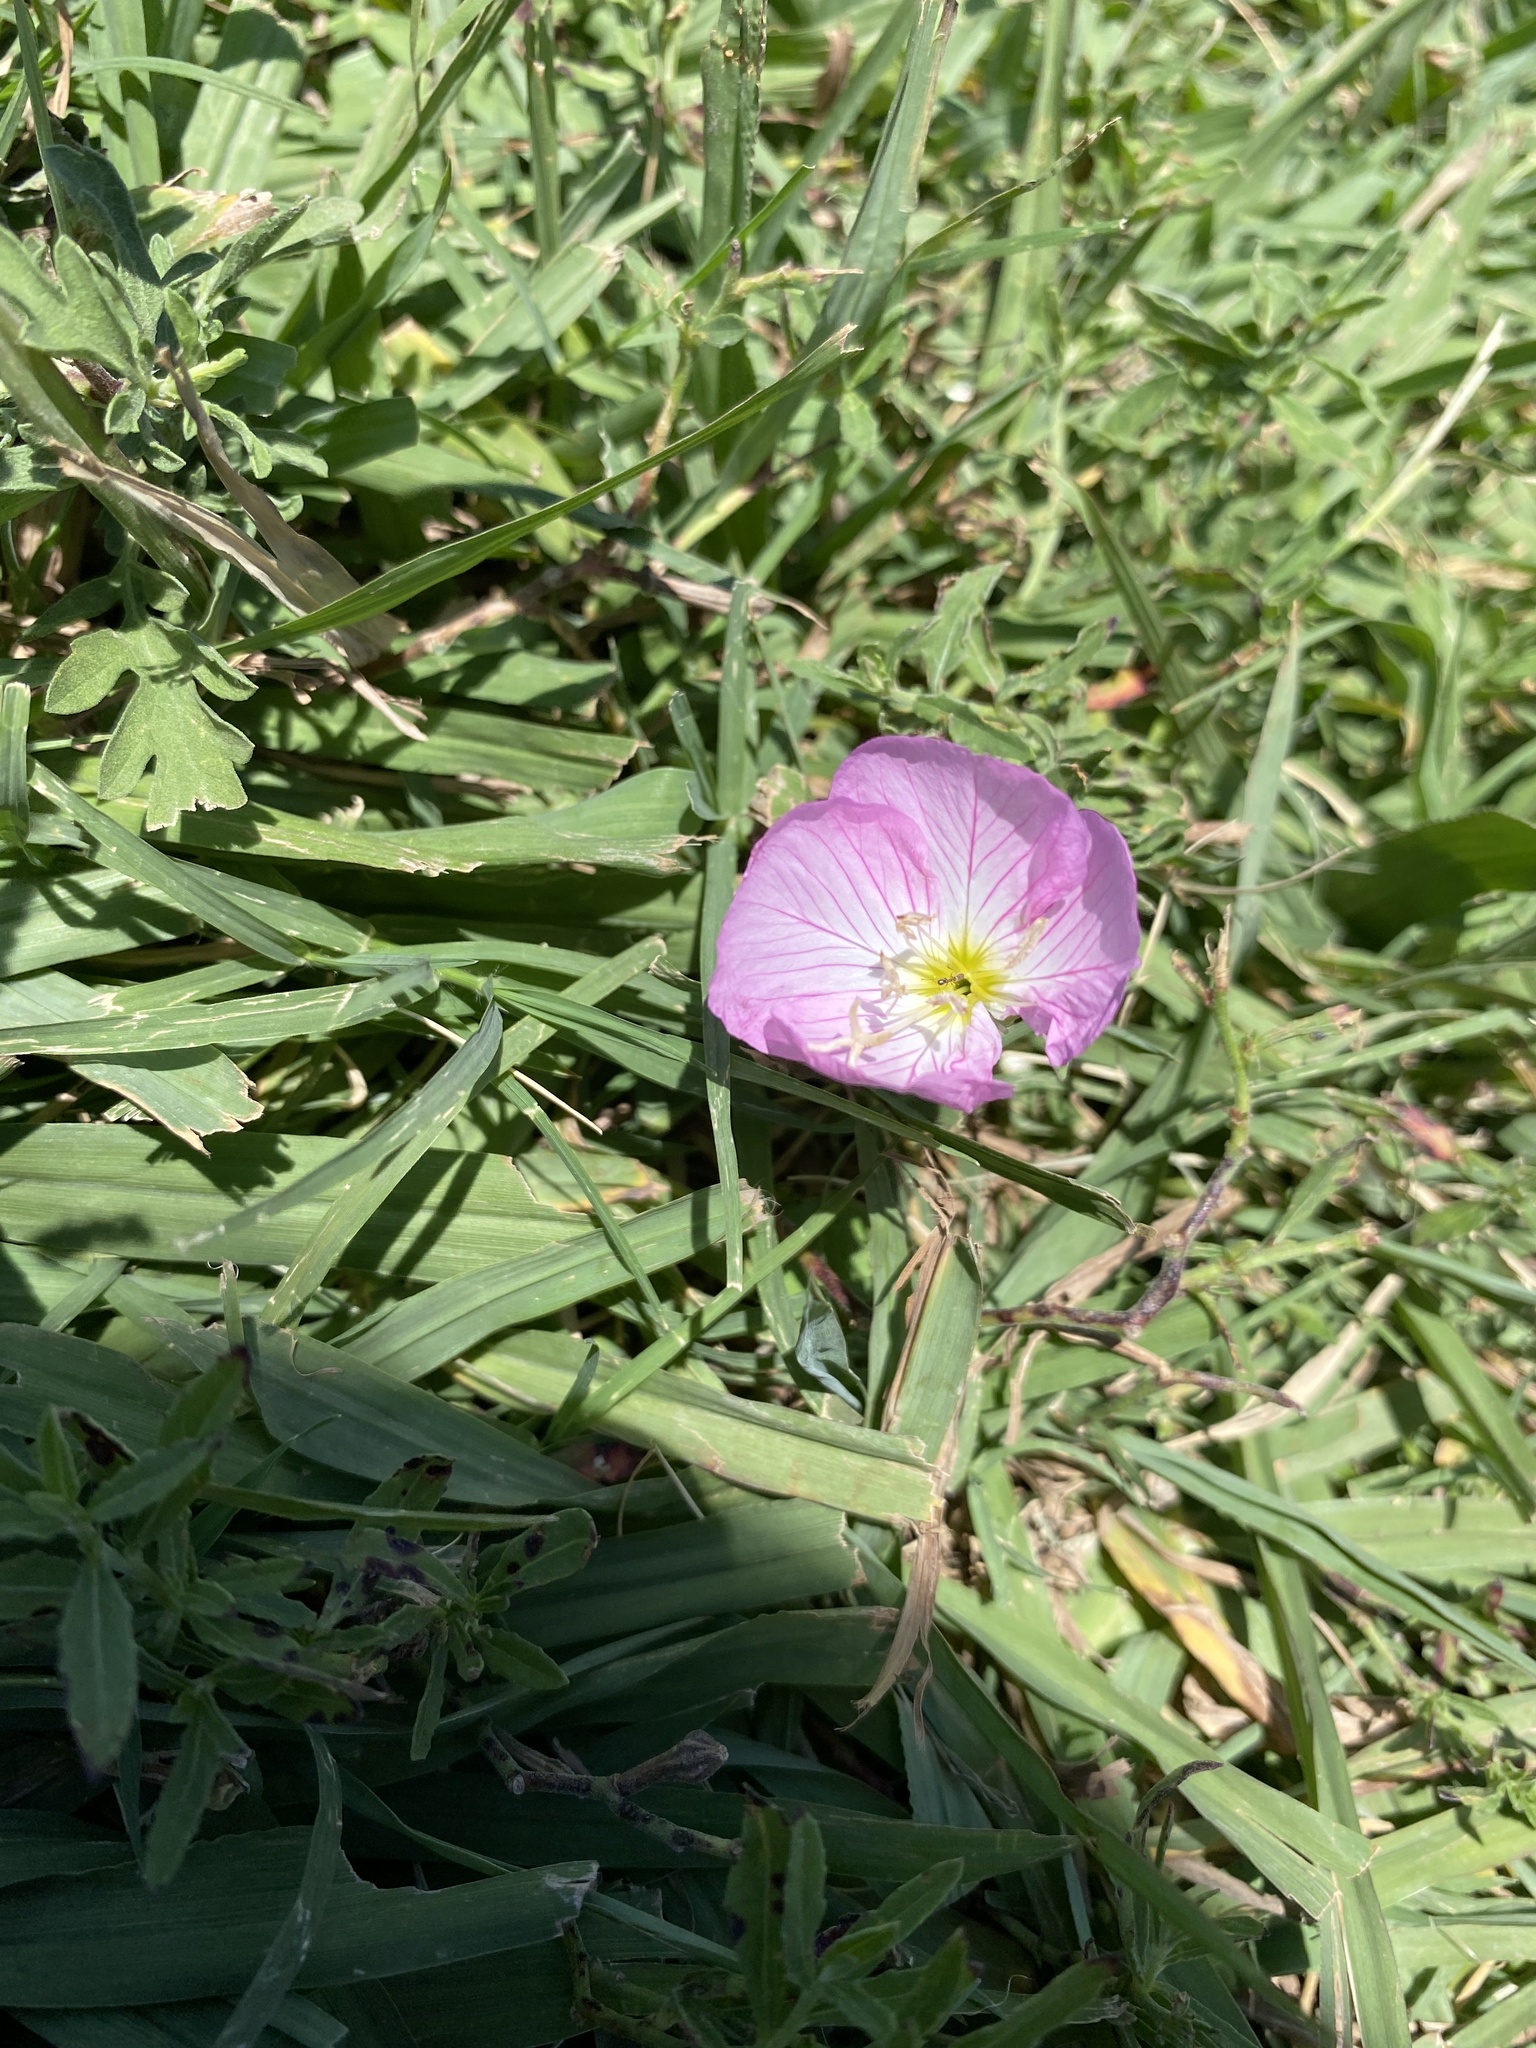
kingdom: Plantae
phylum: Tracheophyta
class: Magnoliopsida
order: Myrtales
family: Onagraceae
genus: Oenothera
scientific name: Oenothera speciosa
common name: White evening-primrose
